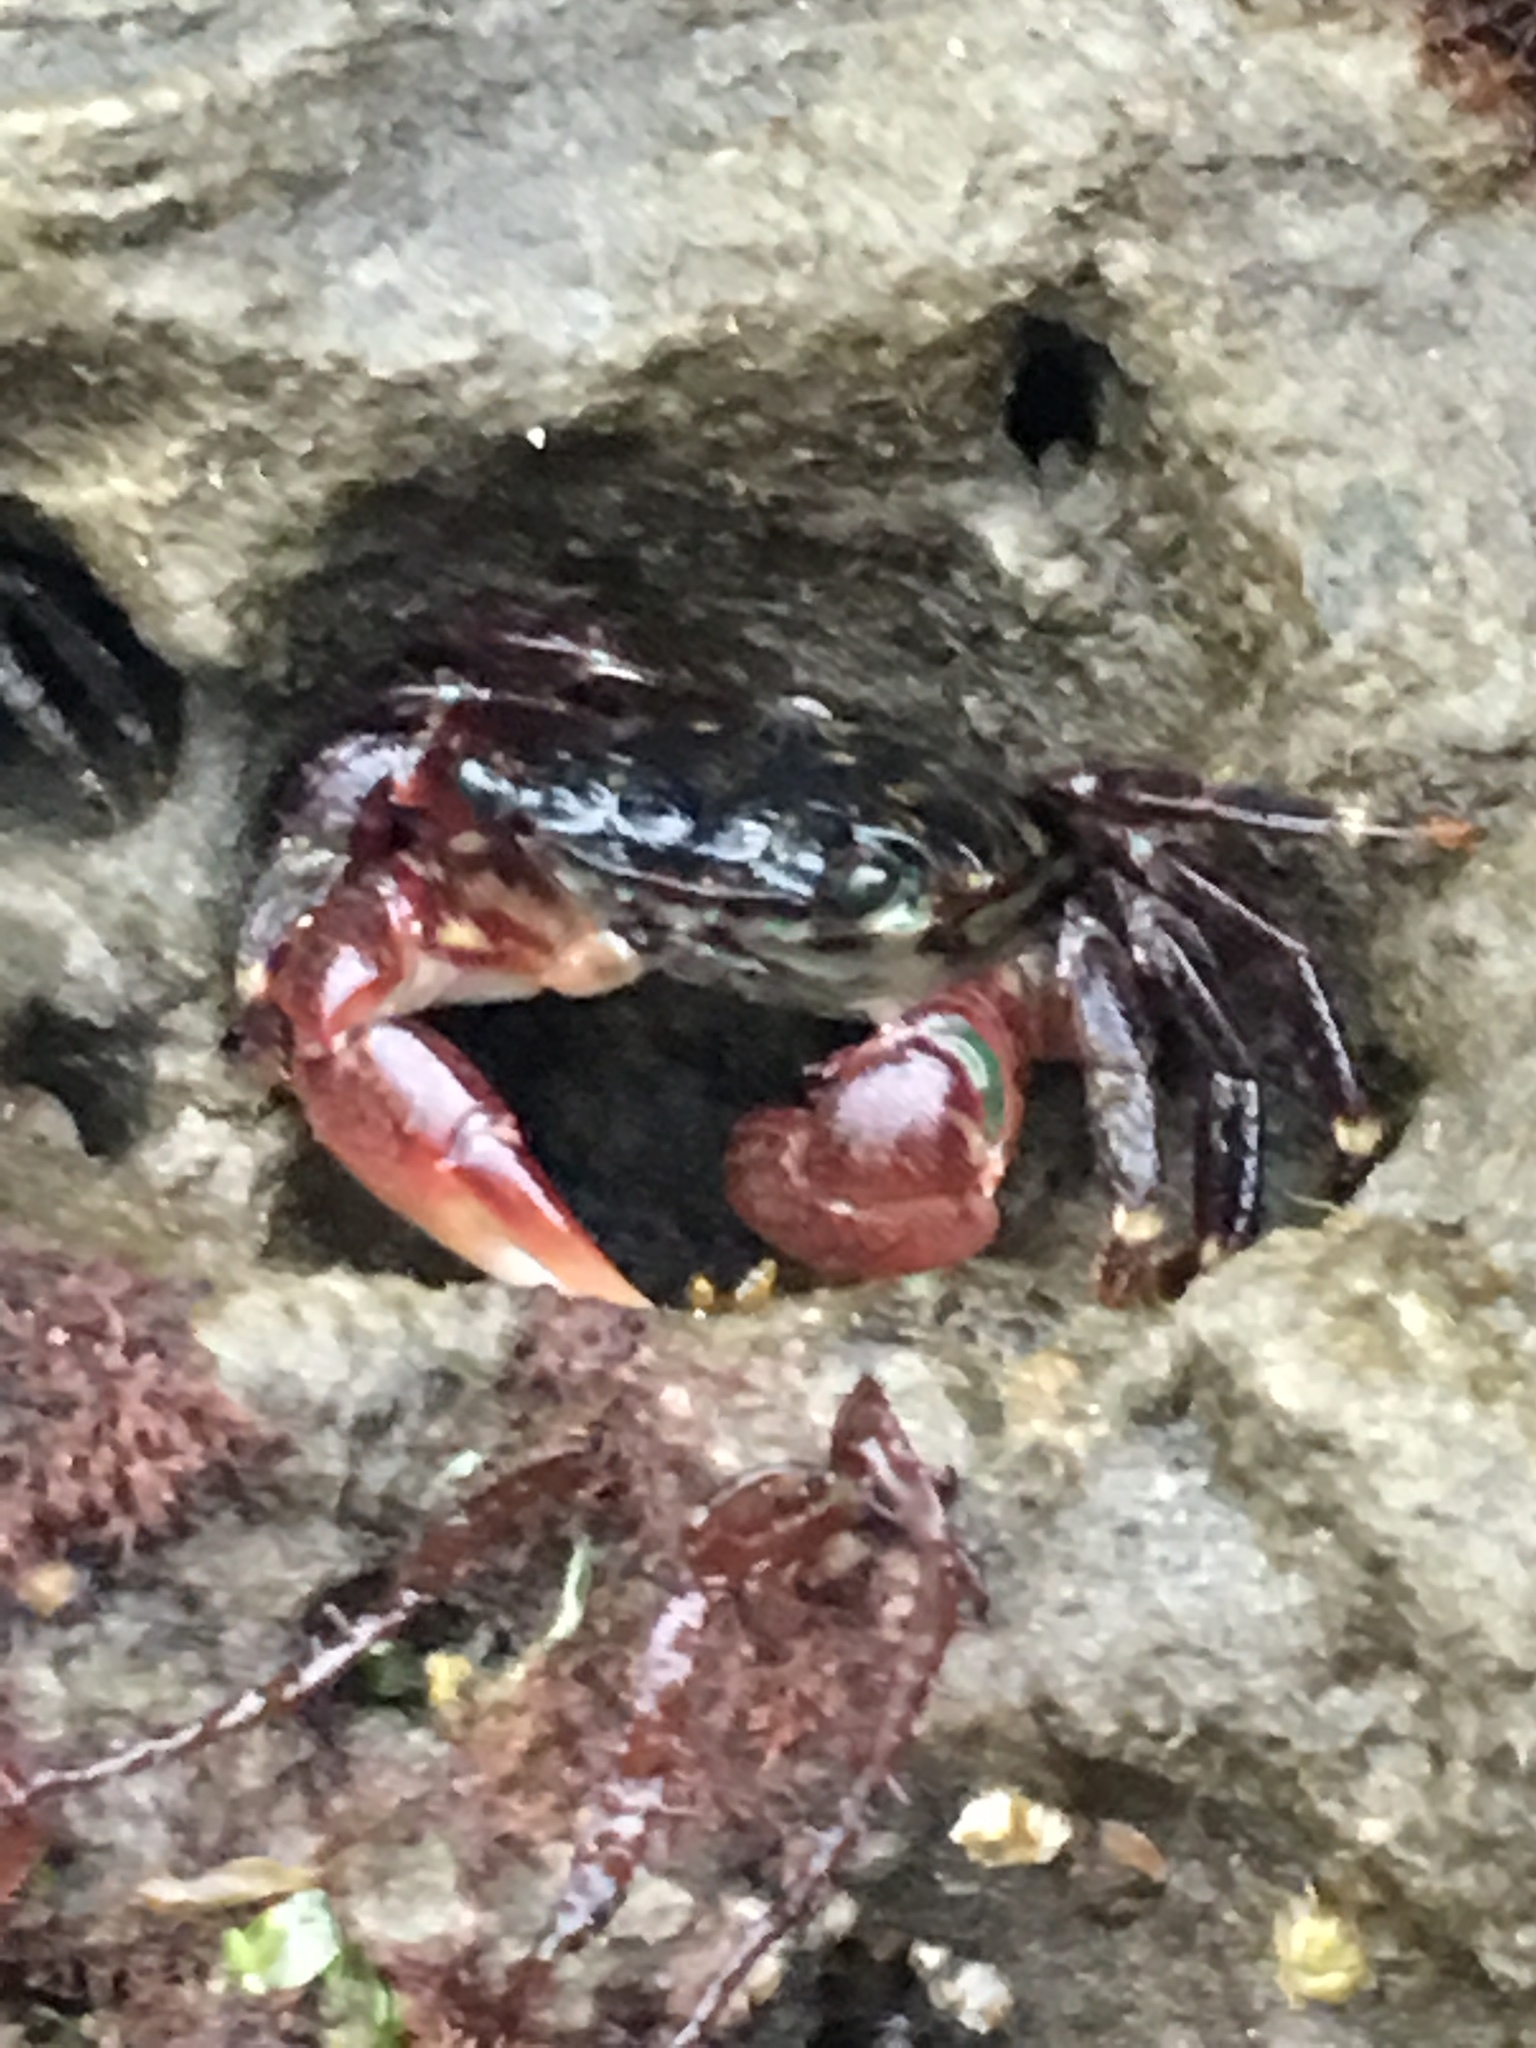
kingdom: Animalia
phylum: Arthropoda
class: Malacostraca
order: Decapoda
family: Grapsidae
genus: Pachygrapsus
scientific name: Pachygrapsus crassipes
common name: Striped shore crab
